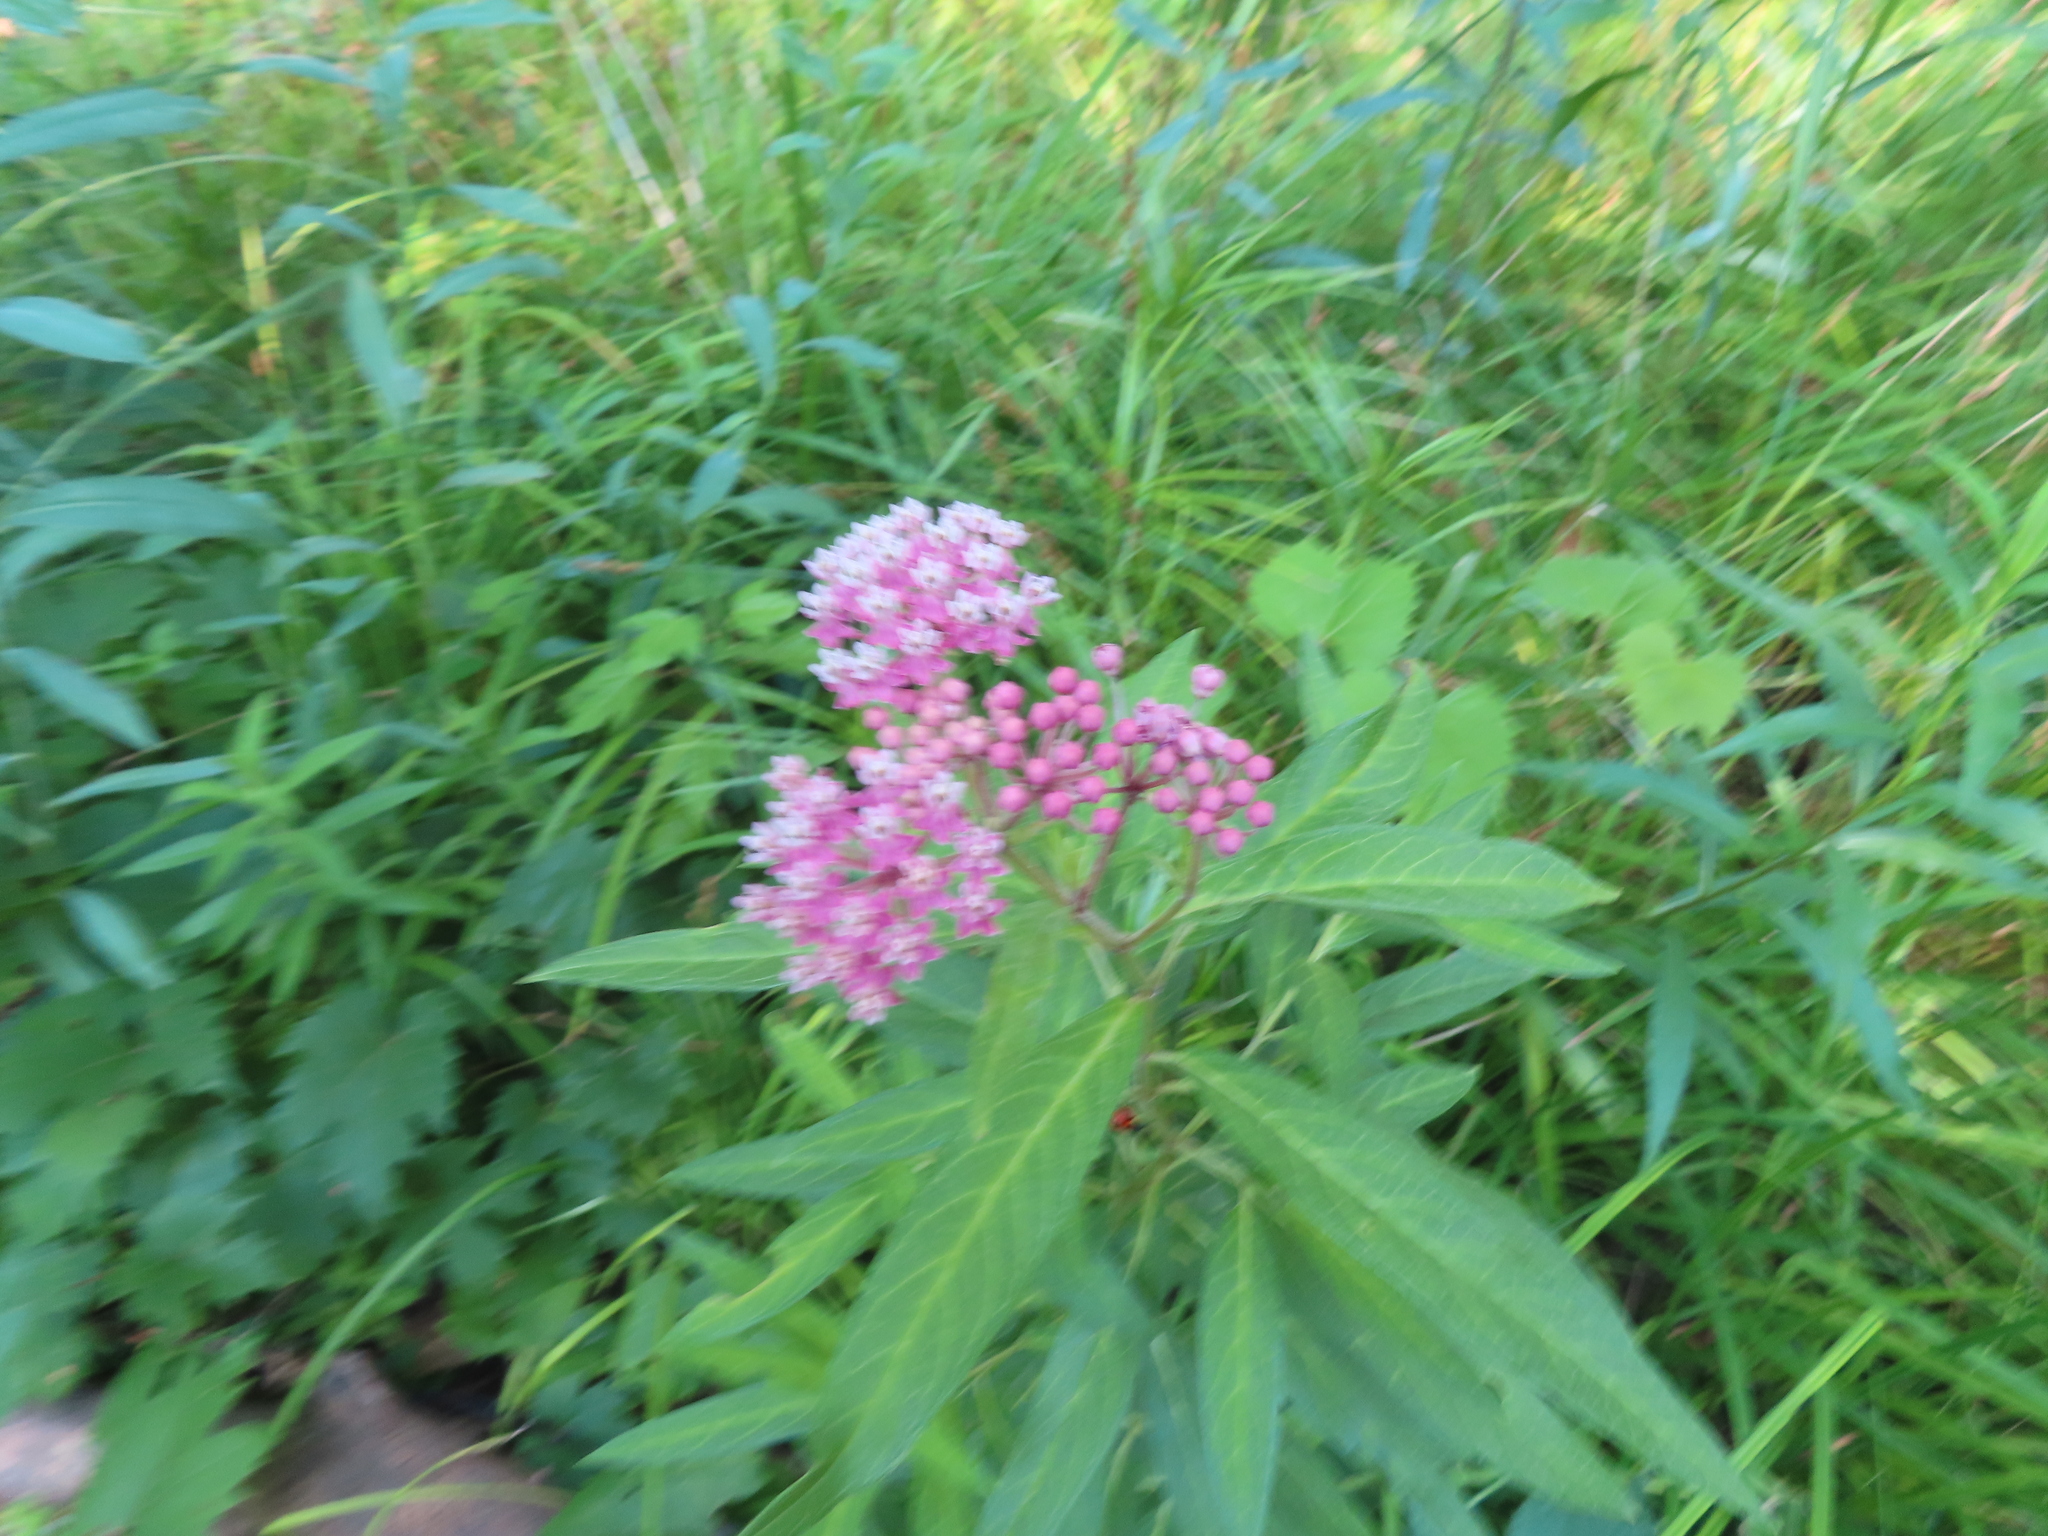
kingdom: Plantae
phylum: Tracheophyta
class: Magnoliopsida
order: Gentianales
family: Apocynaceae
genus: Asclepias
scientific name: Asclepias incarnata
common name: Swamp milkweed
